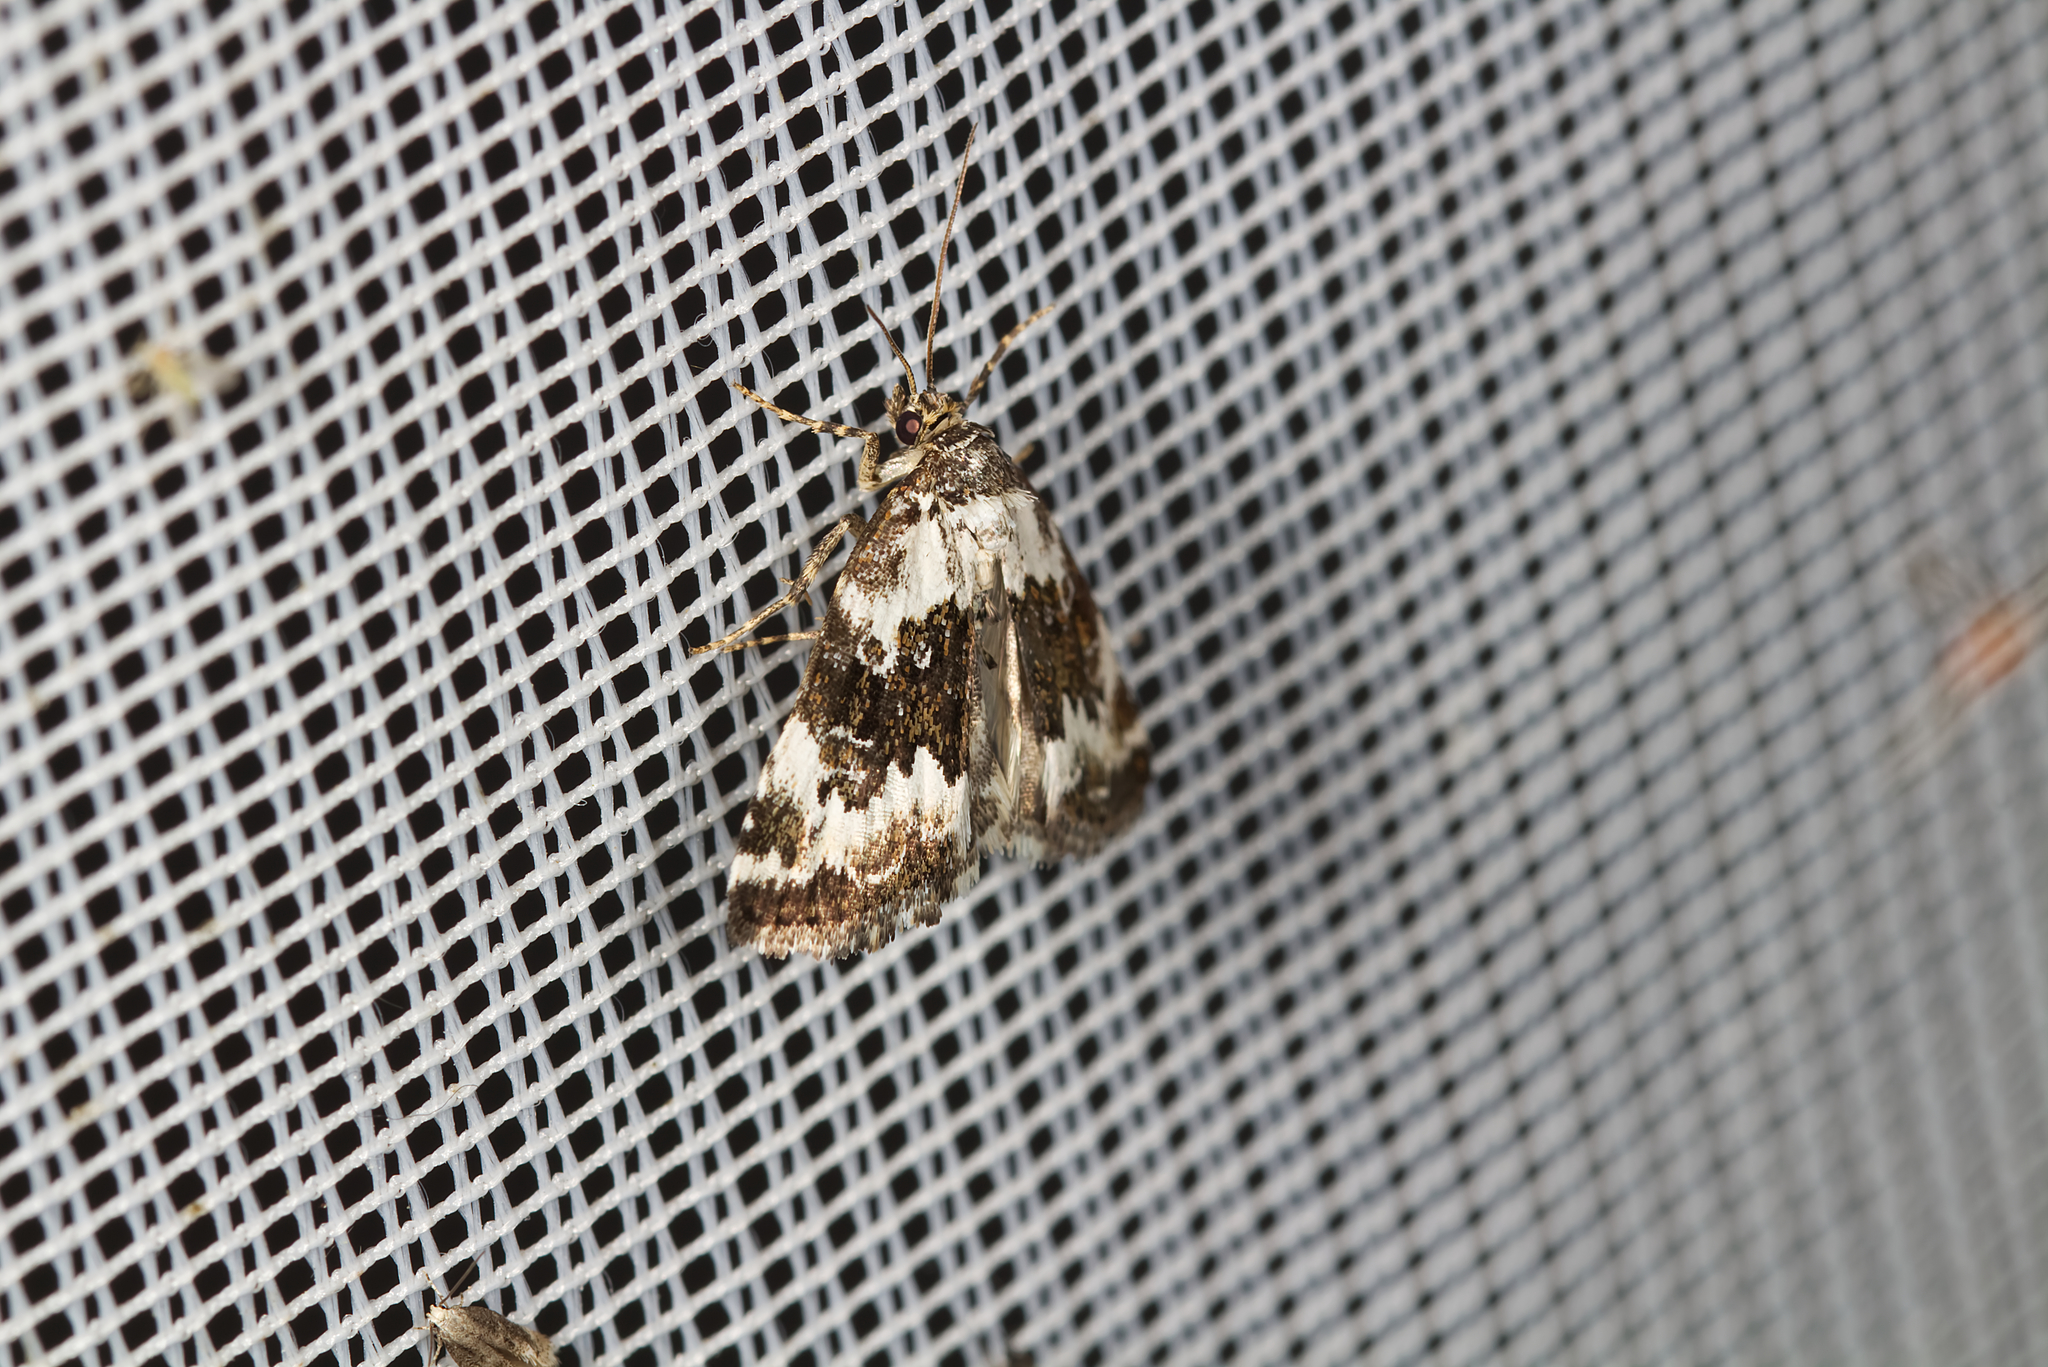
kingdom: Animalia
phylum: Arthropoda
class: Insecta
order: Lepidoptera
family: Noctuidae
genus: Deltote
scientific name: Deltote deceptoria
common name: Pretty marbled
